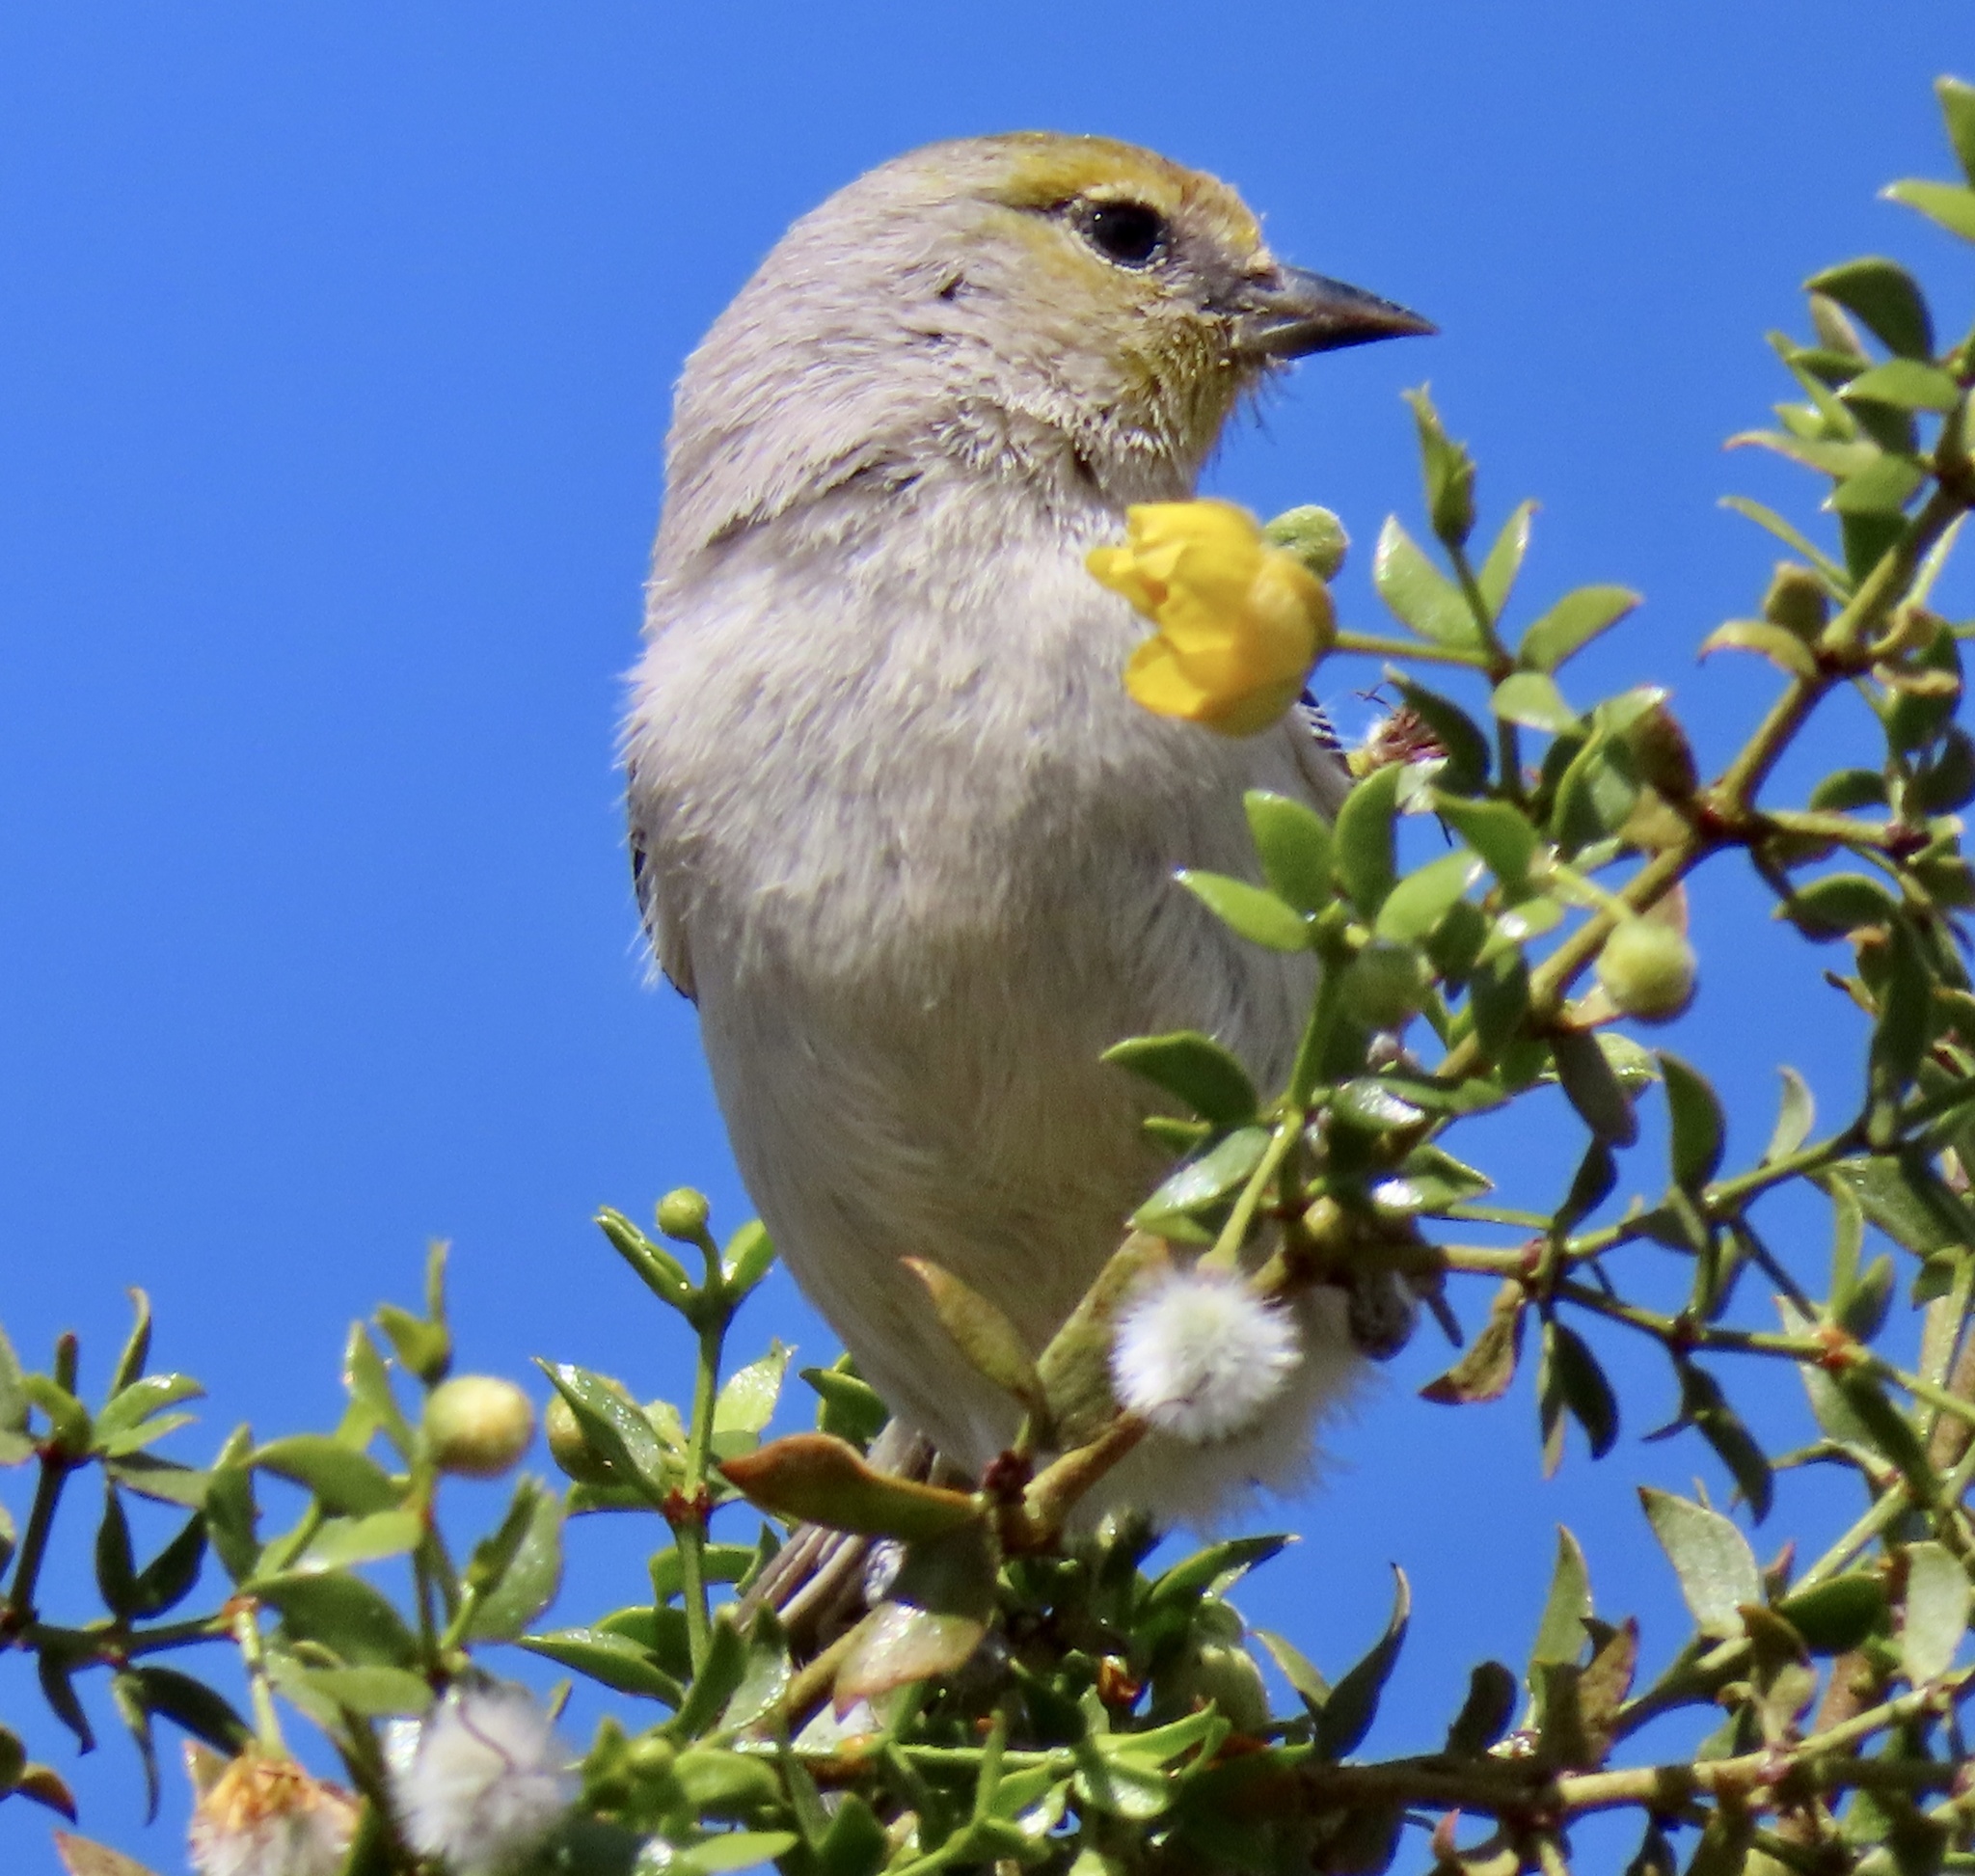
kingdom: Animalia
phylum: Chordata
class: Aves
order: Passeriformes
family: Remizidae
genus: Auriparus
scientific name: Auriparus flaviceps
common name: Verdin
